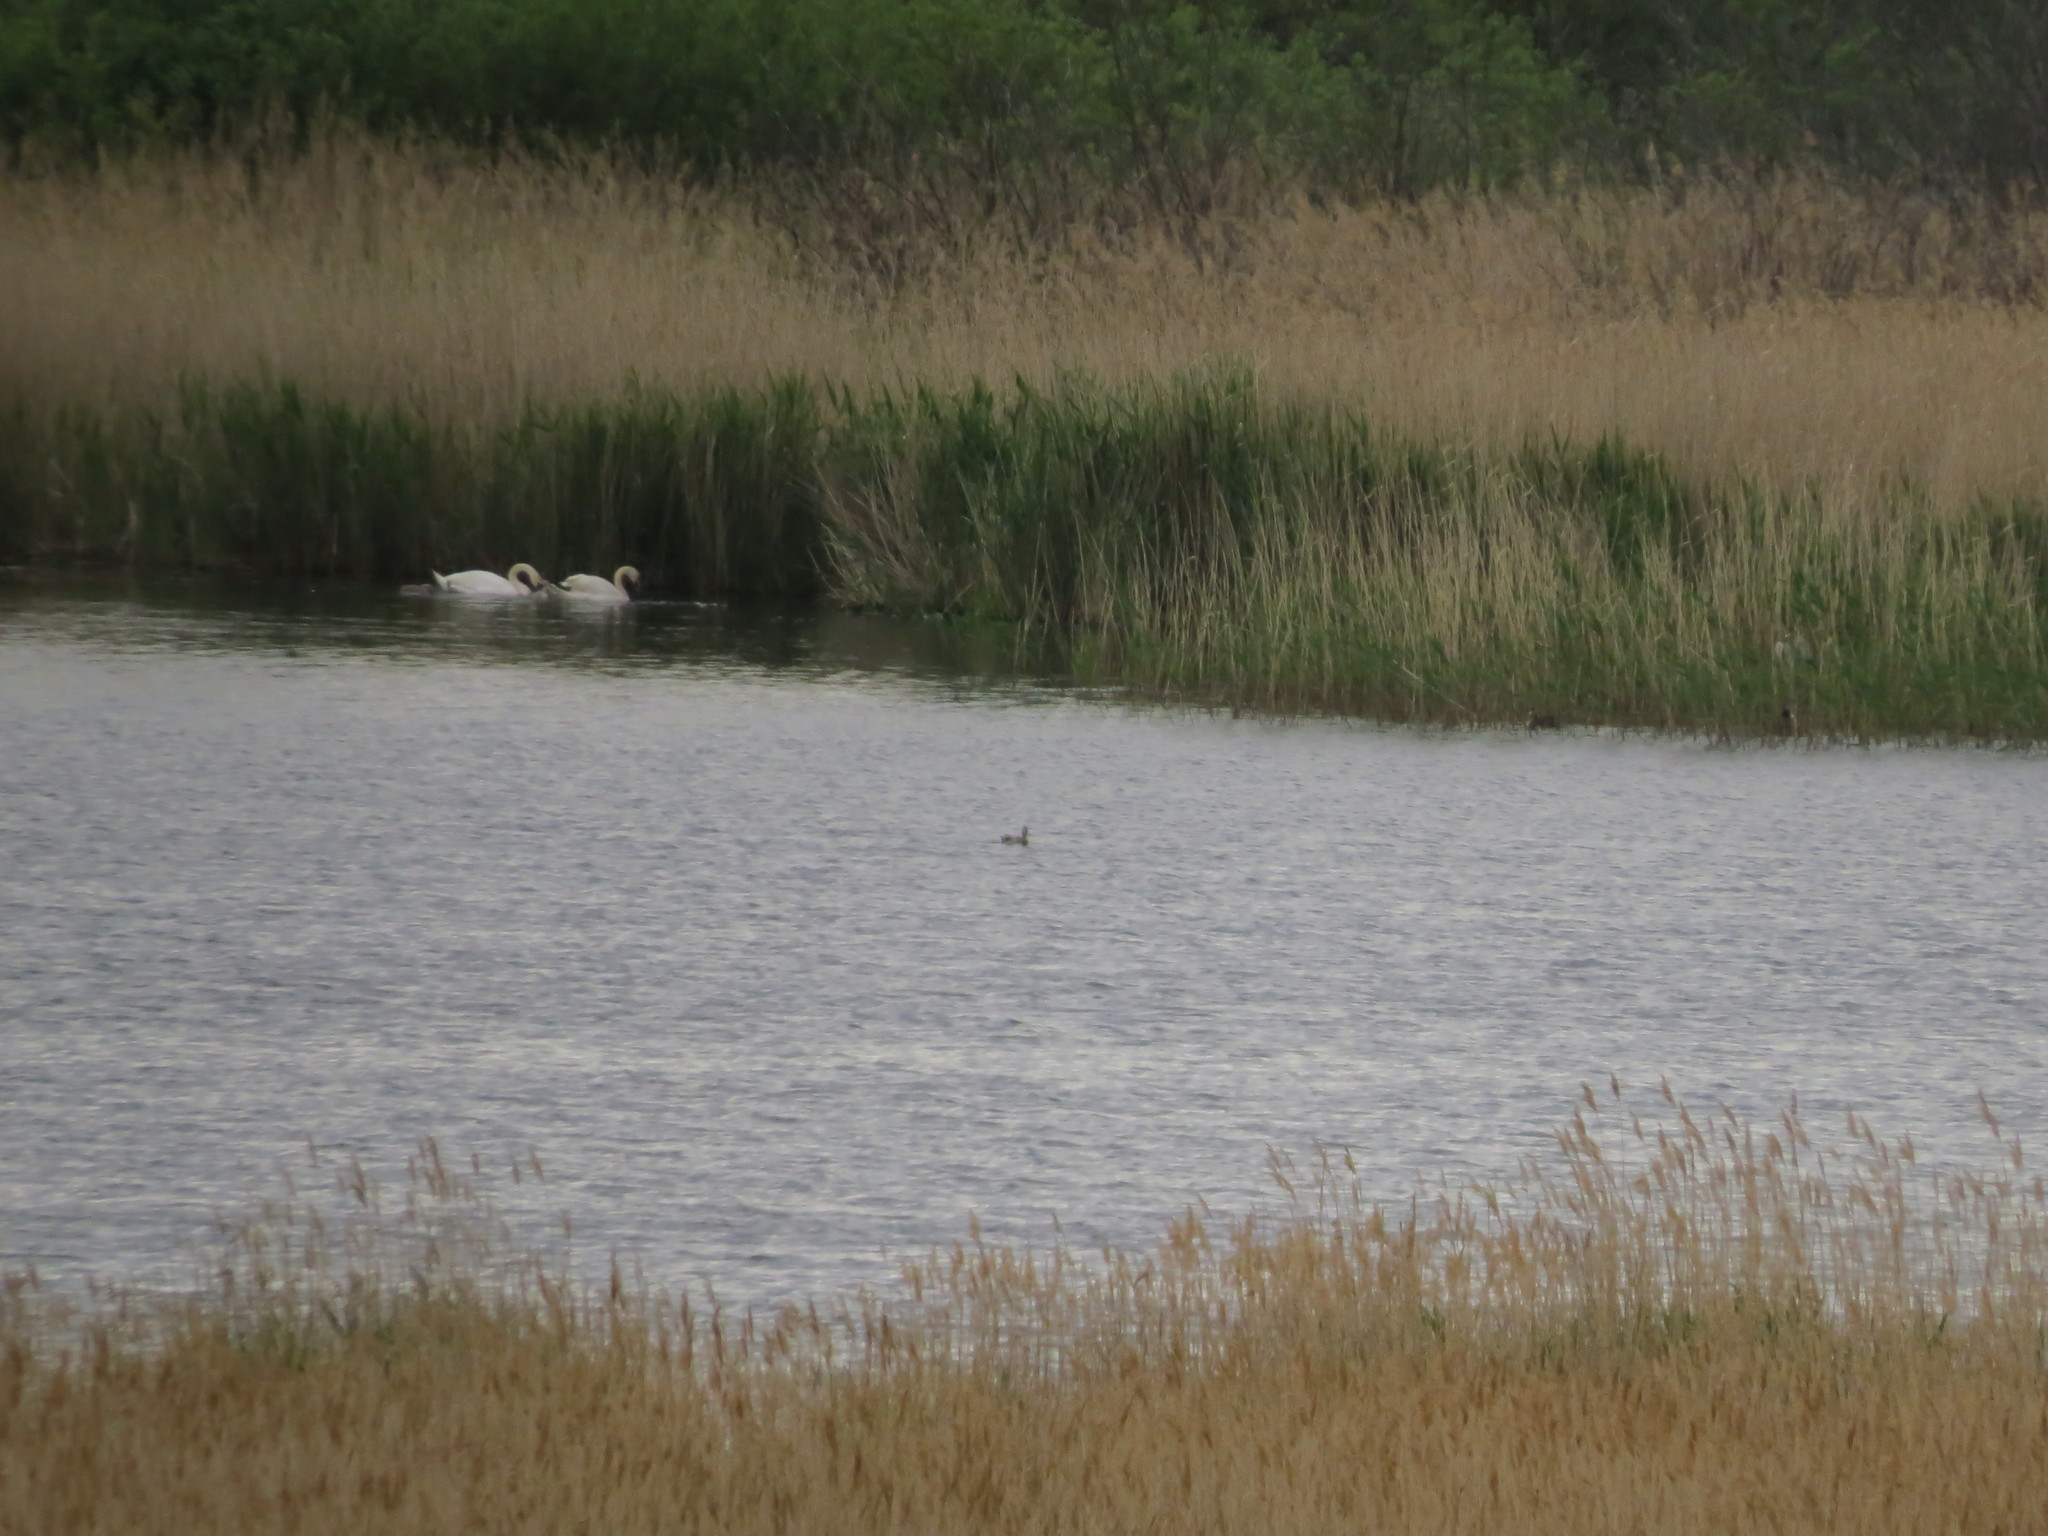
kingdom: Animalia
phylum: Chordata
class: Aves
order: Anseriformes
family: Anatidae
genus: Cygnus
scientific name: Cygnus olor
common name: Mute swan
